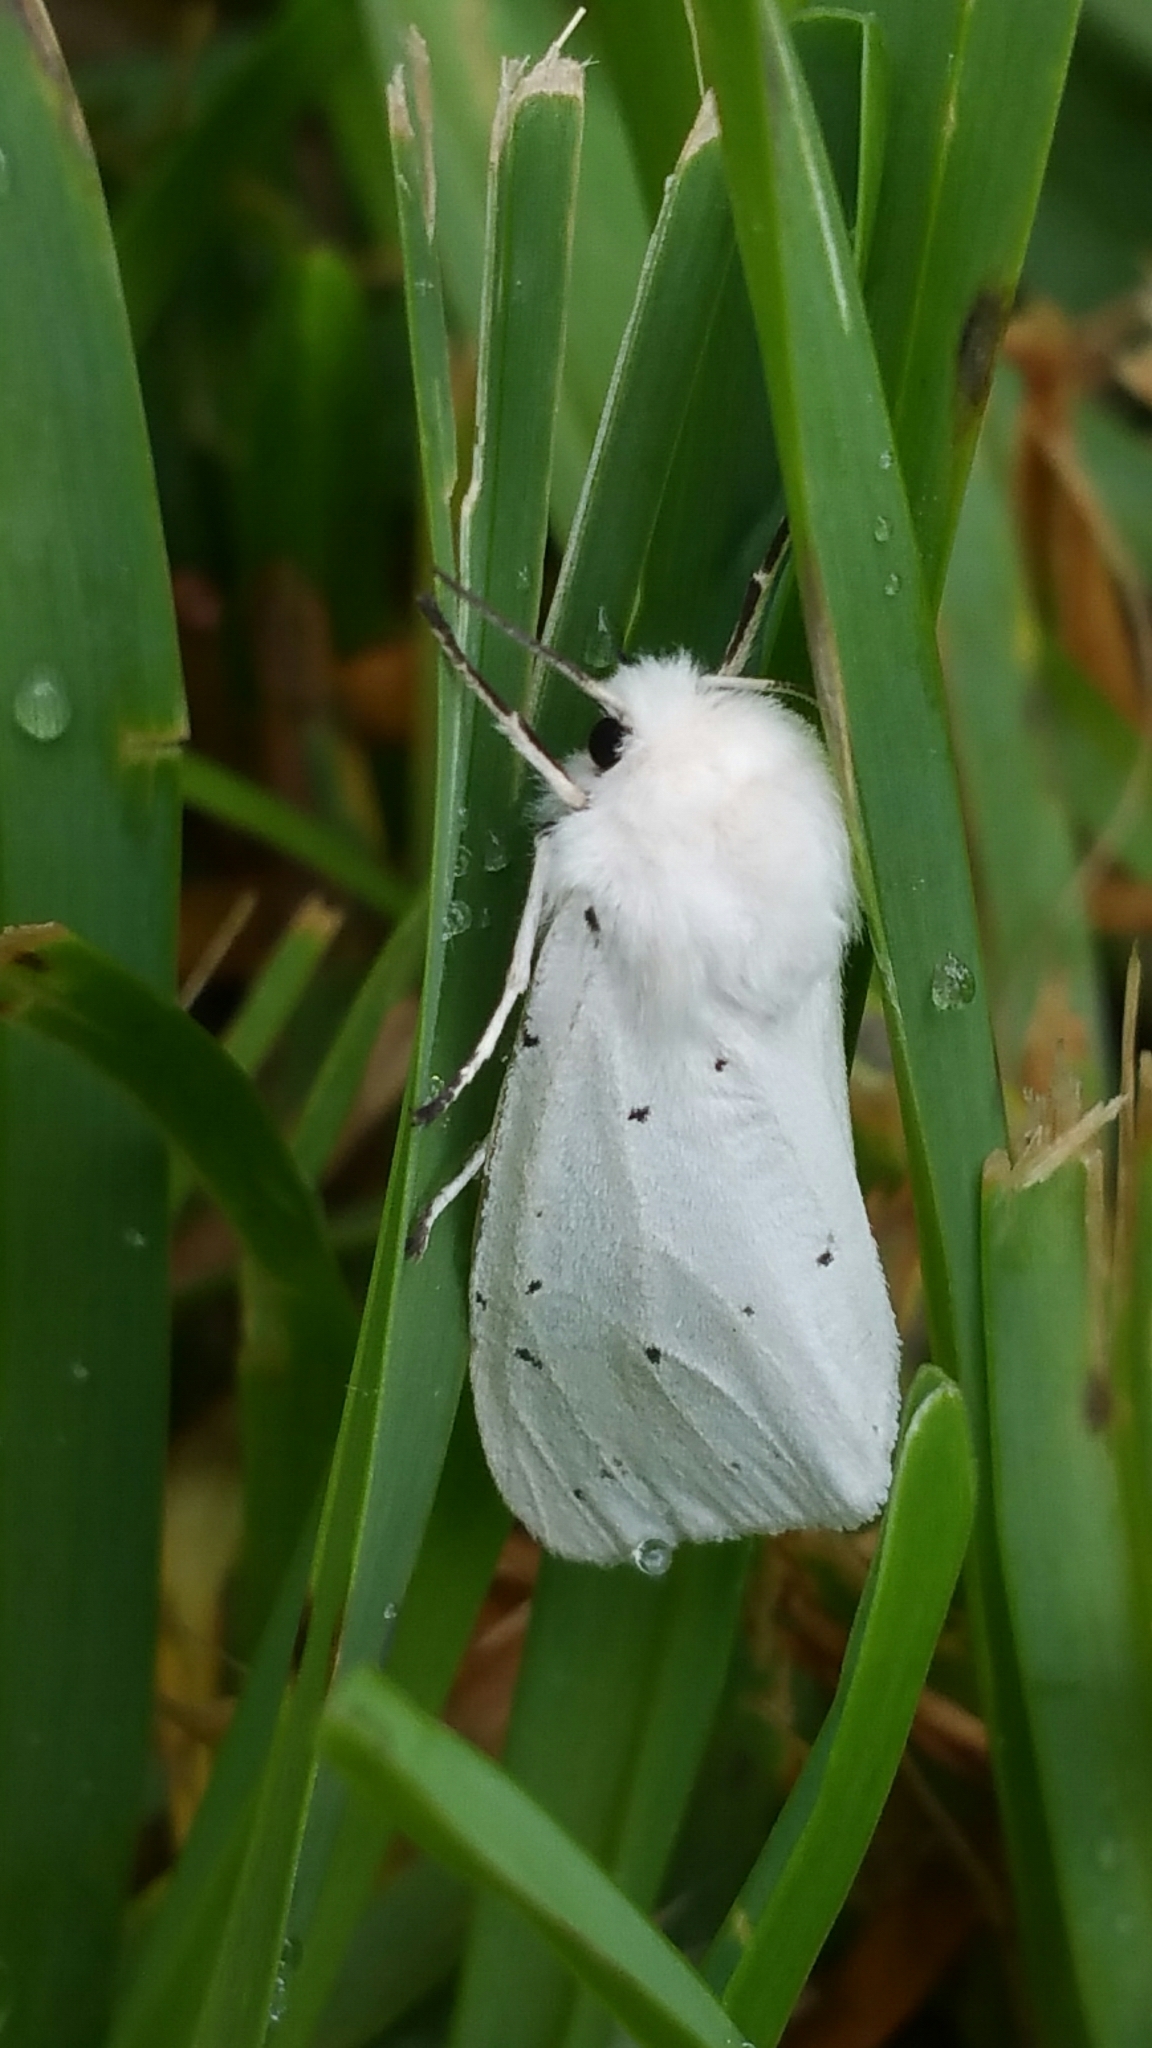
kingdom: Animalia
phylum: Arthropoda
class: Insecta
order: Lepidoptera
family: Erebidae
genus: Spilosoma
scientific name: Spilosoma urticae
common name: Water ermine
